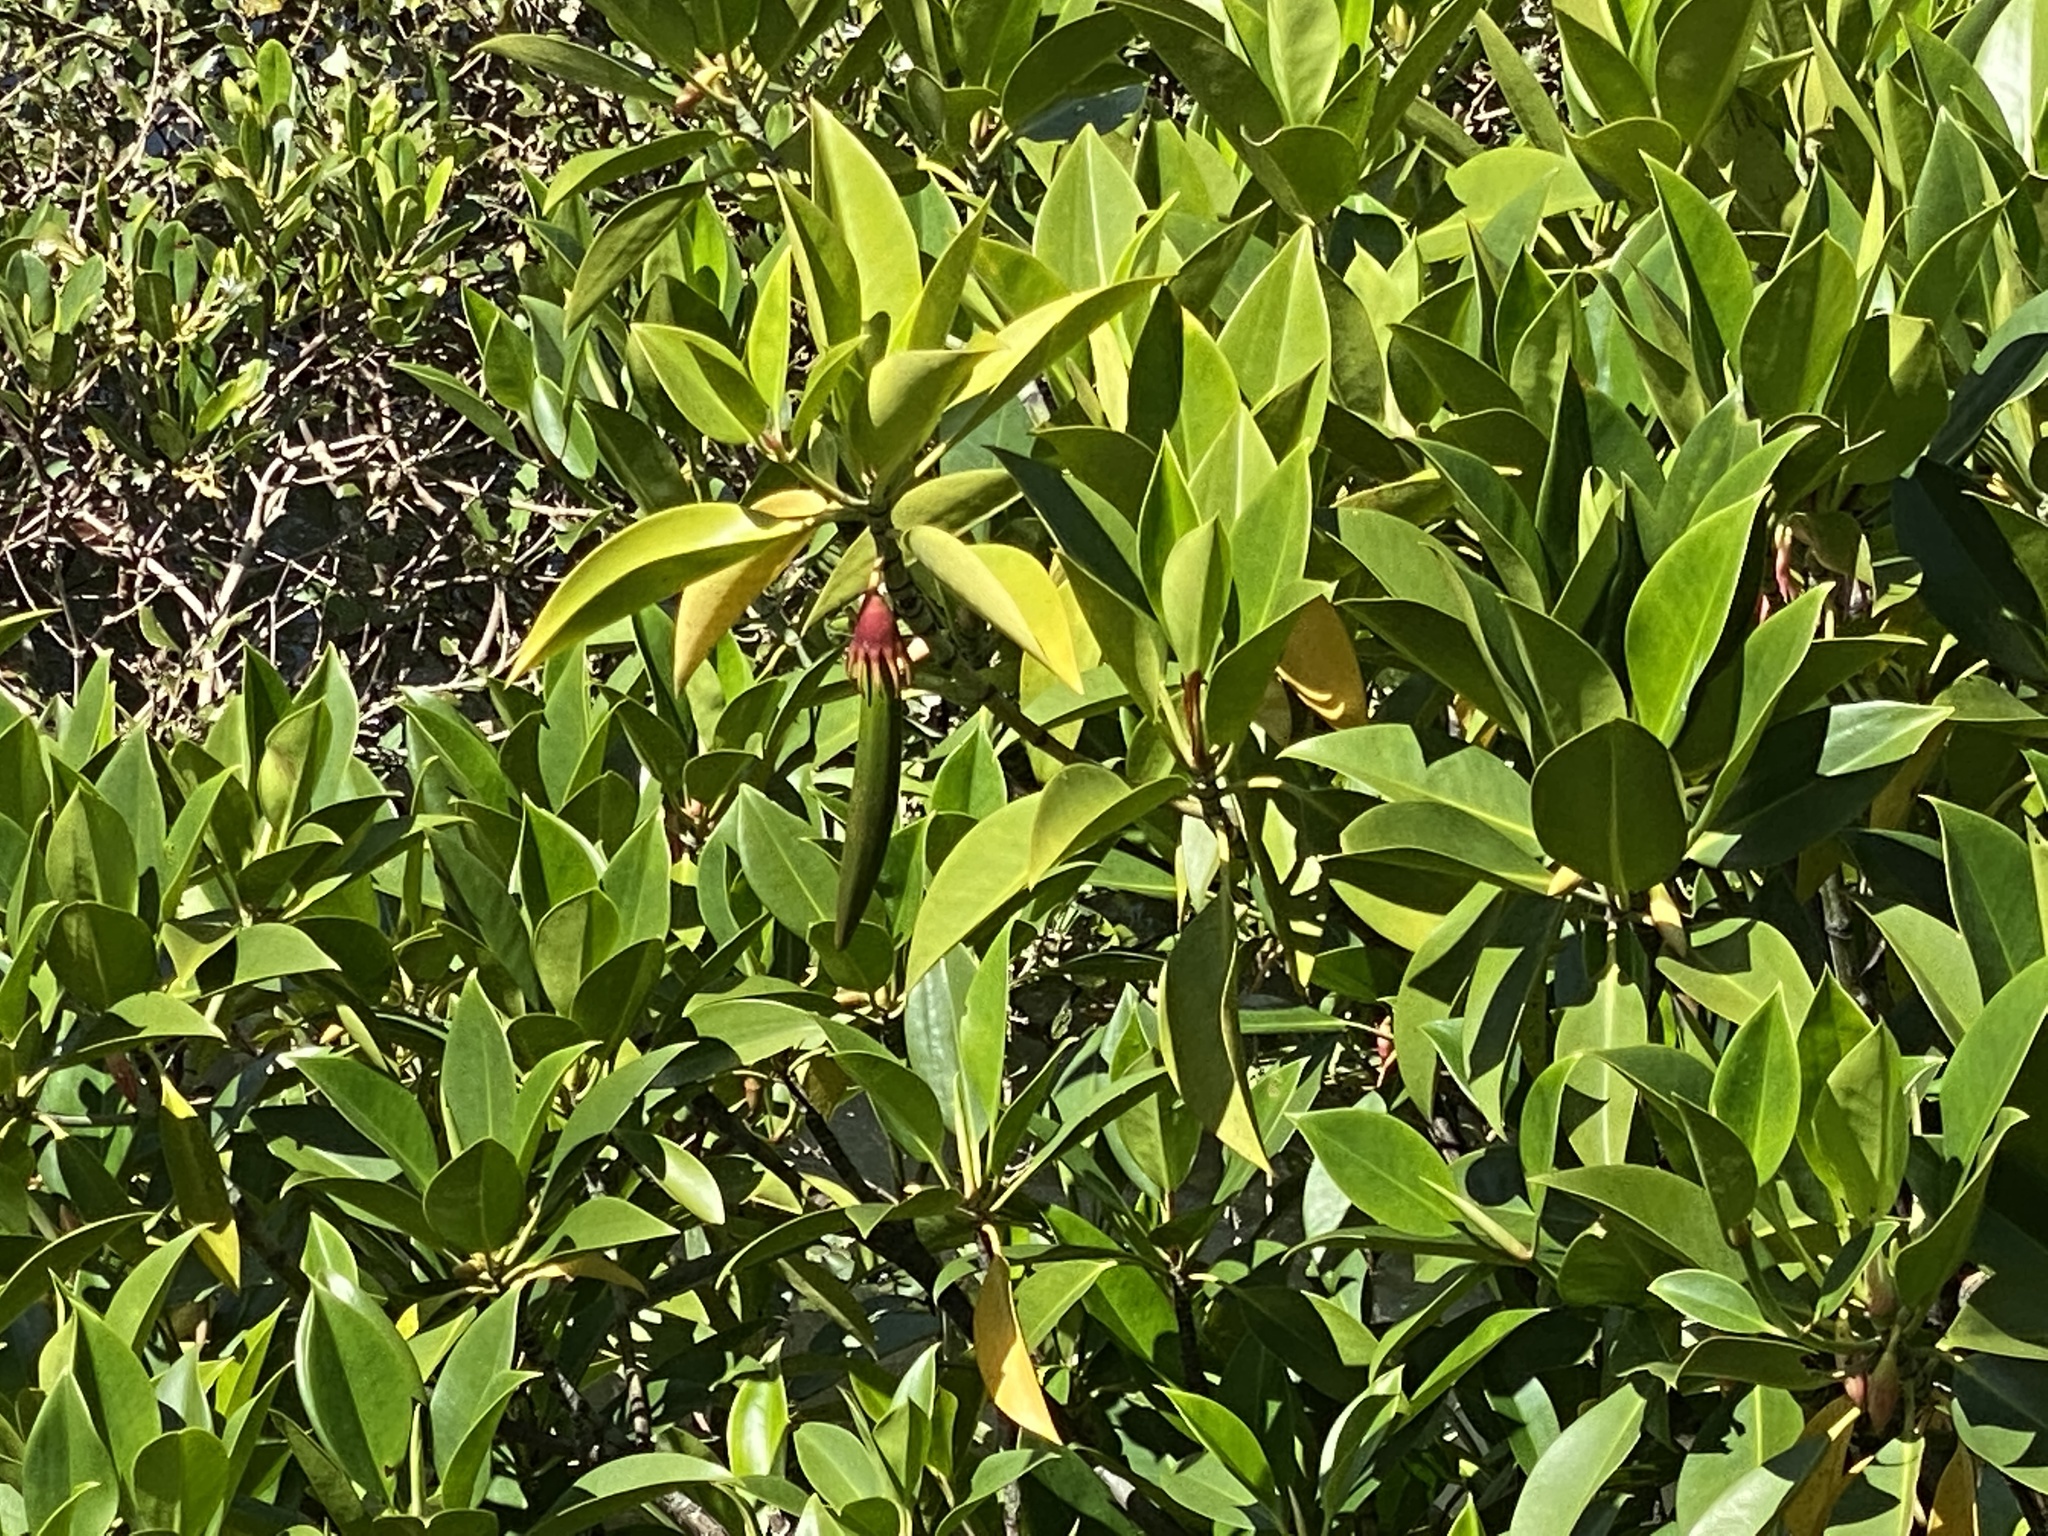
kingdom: Plantae
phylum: Tracheophyta
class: Magnoliopsida
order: Malpighiales
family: Rhizophoraceae
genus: Bruguiera
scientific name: Bruguiera gymnorhiza
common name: Oriental mangrove
